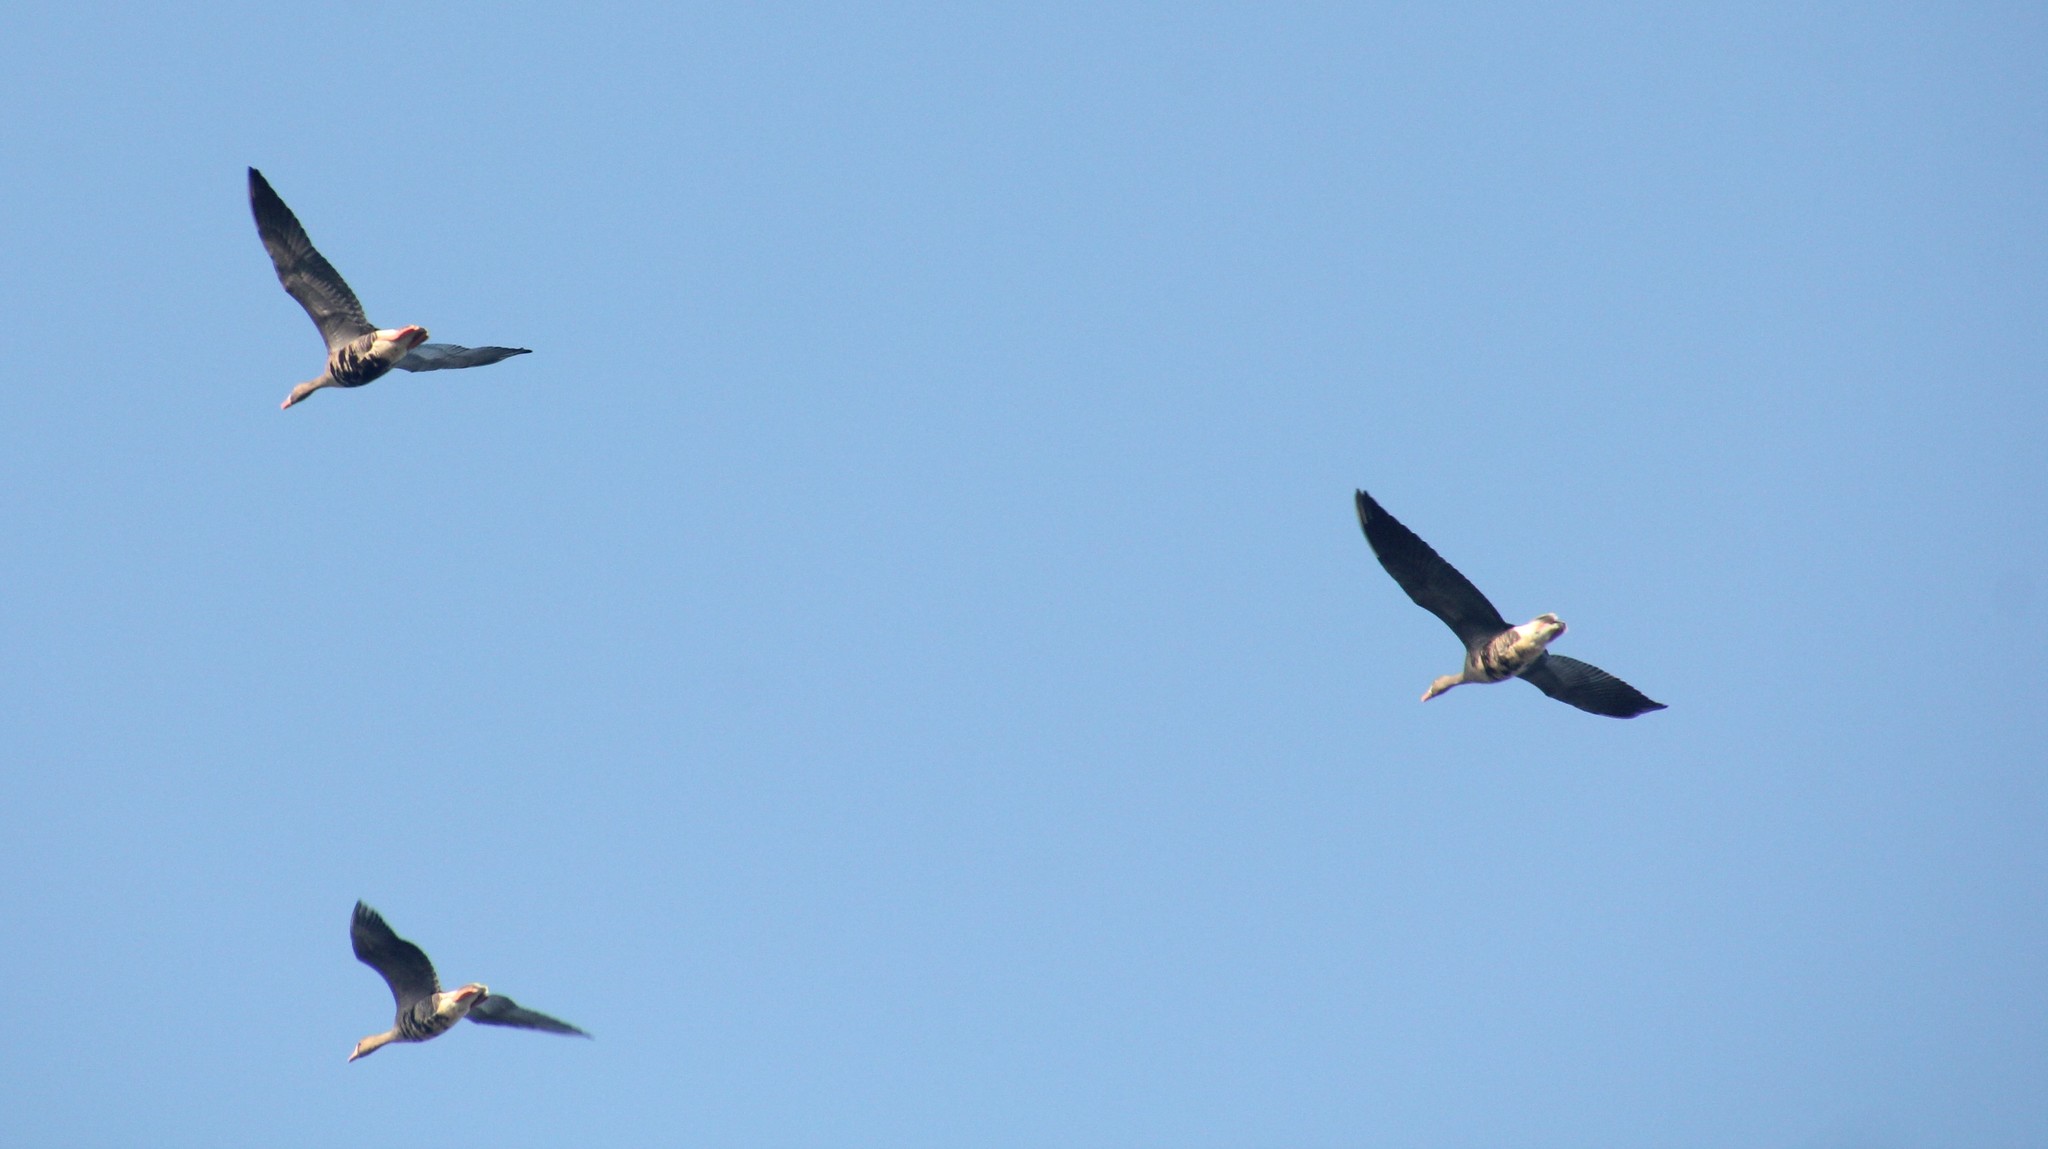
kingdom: Animalia
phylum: Chordata
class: Aves
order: Anseriformes
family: Anatidae
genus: Anser
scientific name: Anser albifrons
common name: Greater white-fronted goose
